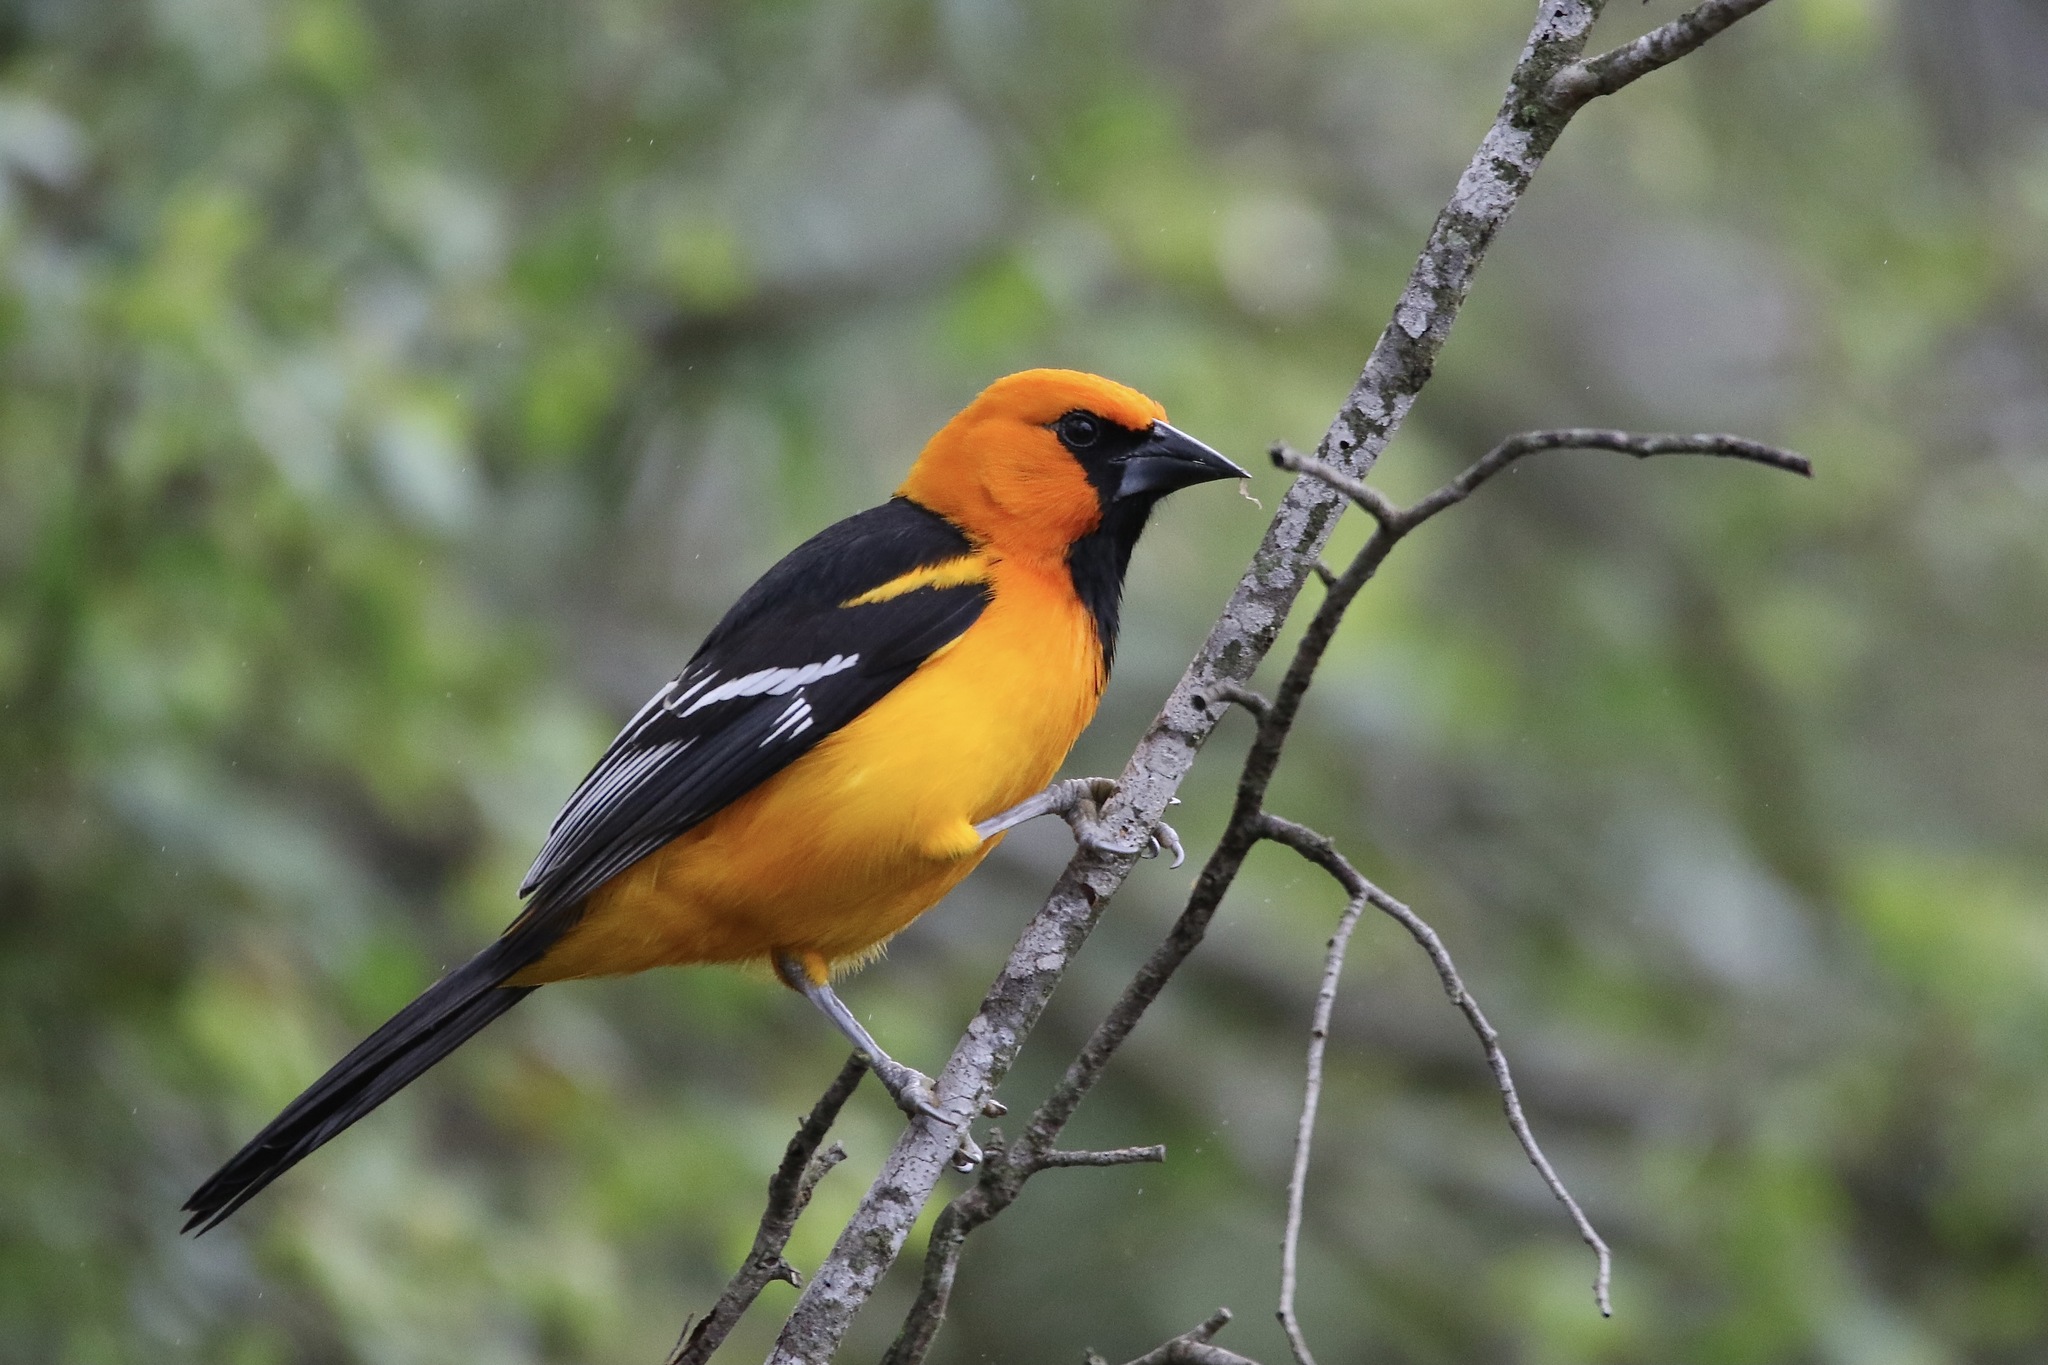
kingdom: Animalia
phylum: Chordata
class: Aves
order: Passeriformes
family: Icteridae
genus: Icterus
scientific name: Icterus gularis
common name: Altamira oriole
